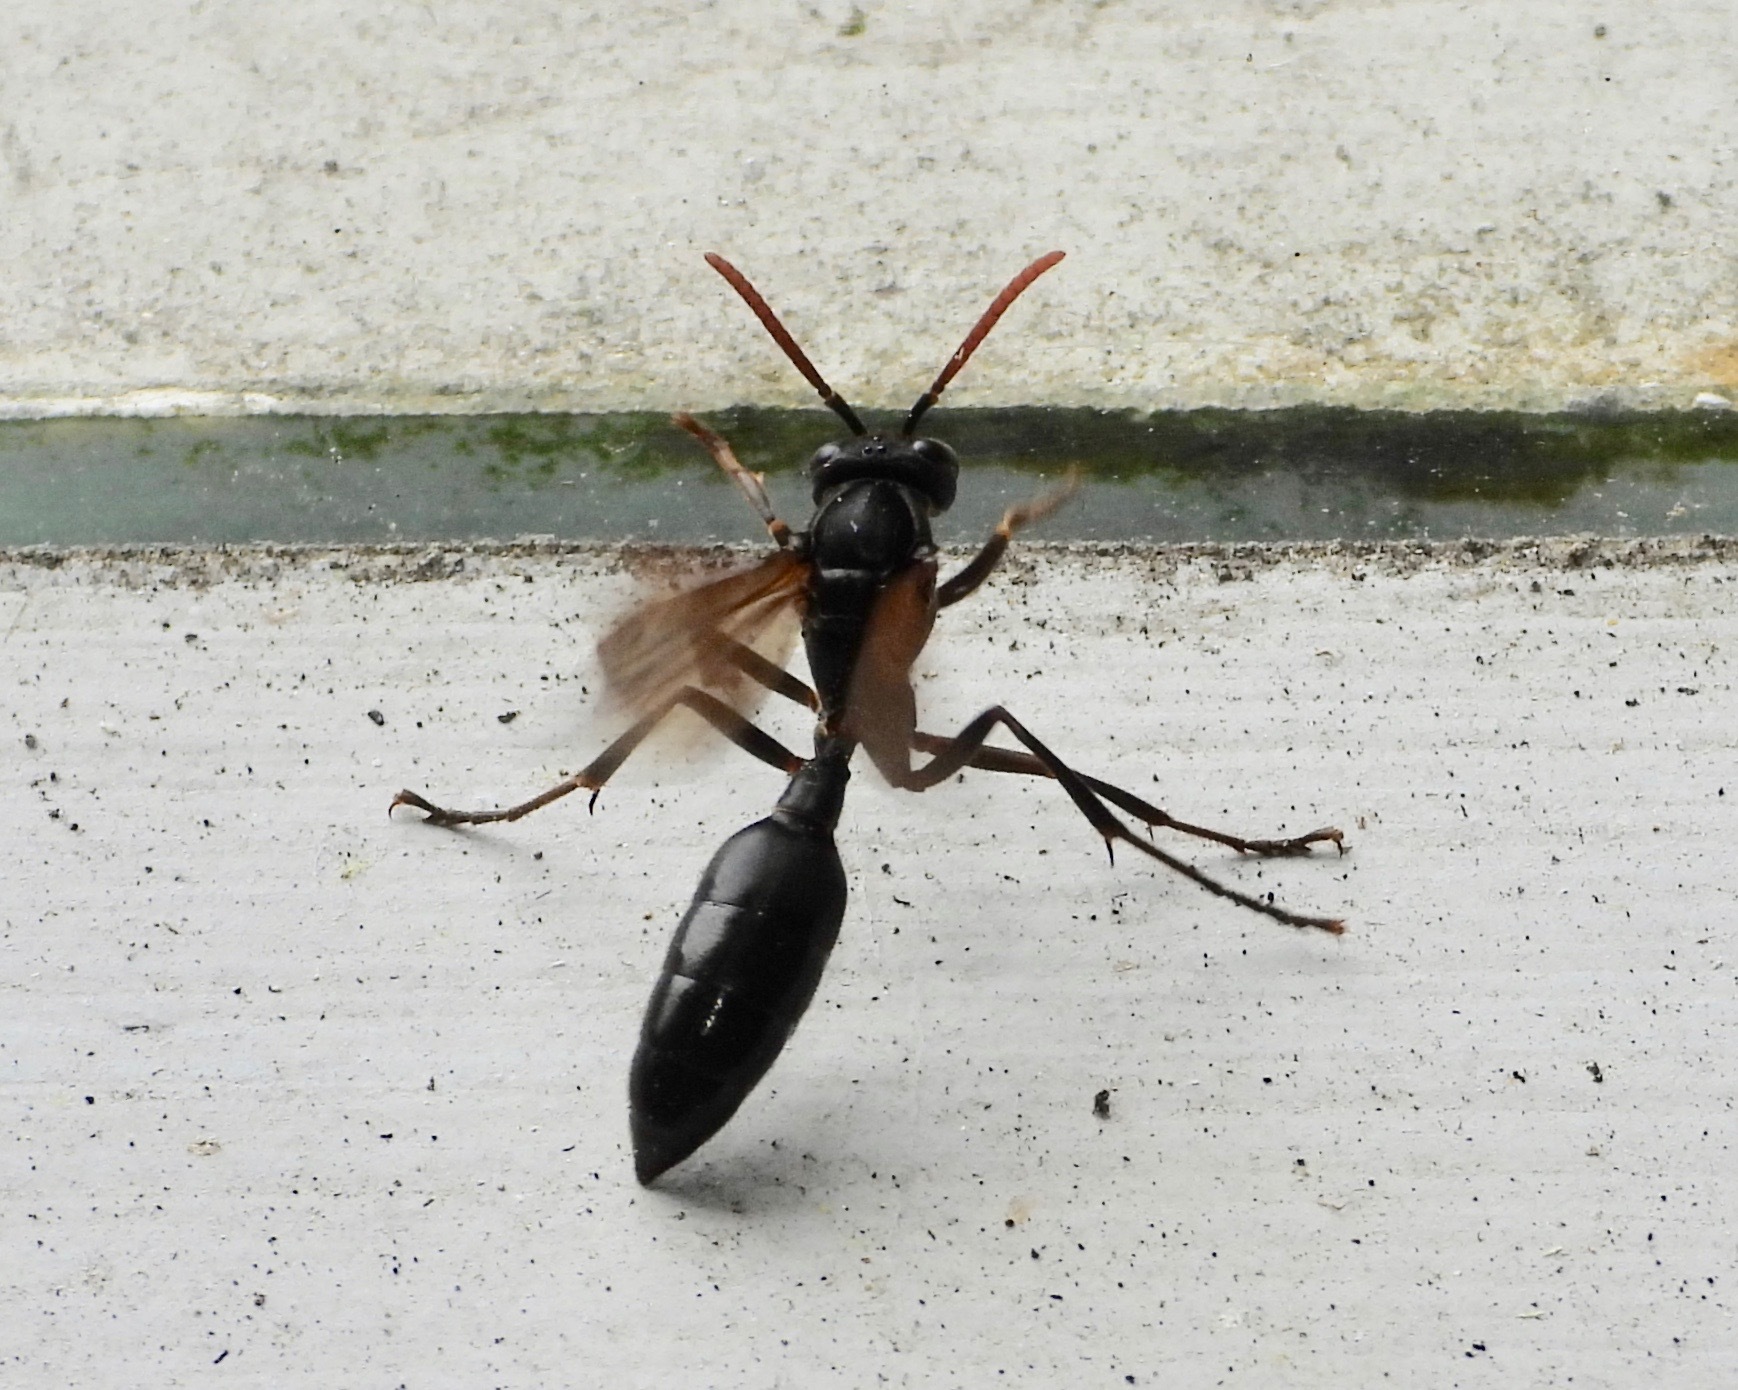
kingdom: Animalia
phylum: Arthropoda
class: Insecta
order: Hymenoptera
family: Vespidae
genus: Agelaia
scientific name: Agelaia panamensis
